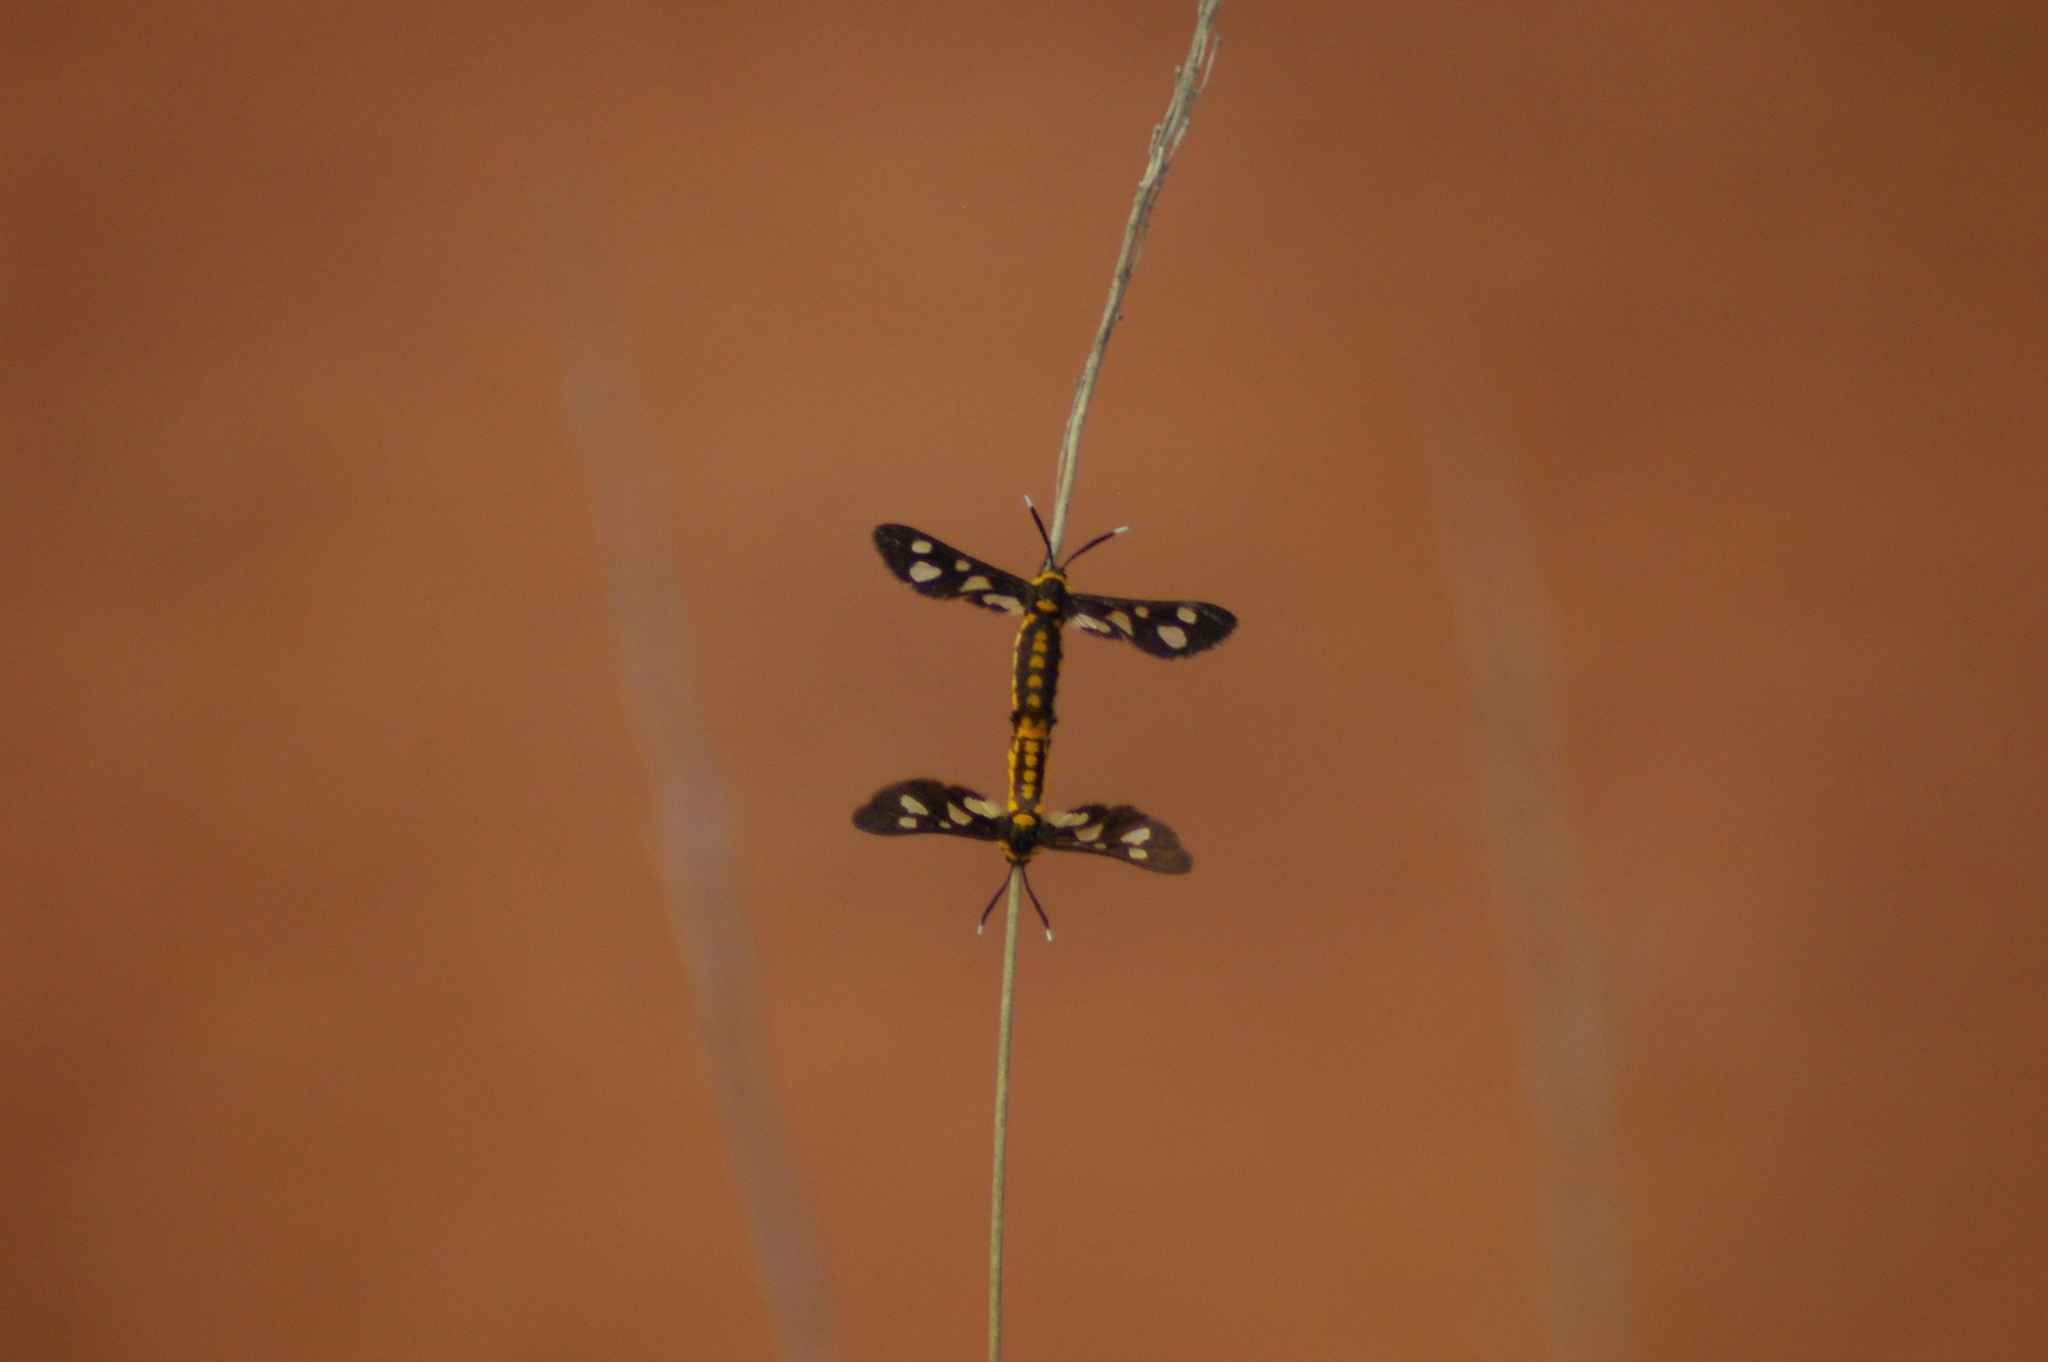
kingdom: Animalia
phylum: Arthropoda
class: Insecta
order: Lepidoptera
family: Erebidae
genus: Trichaeta
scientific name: Trichaeta pterophorina
